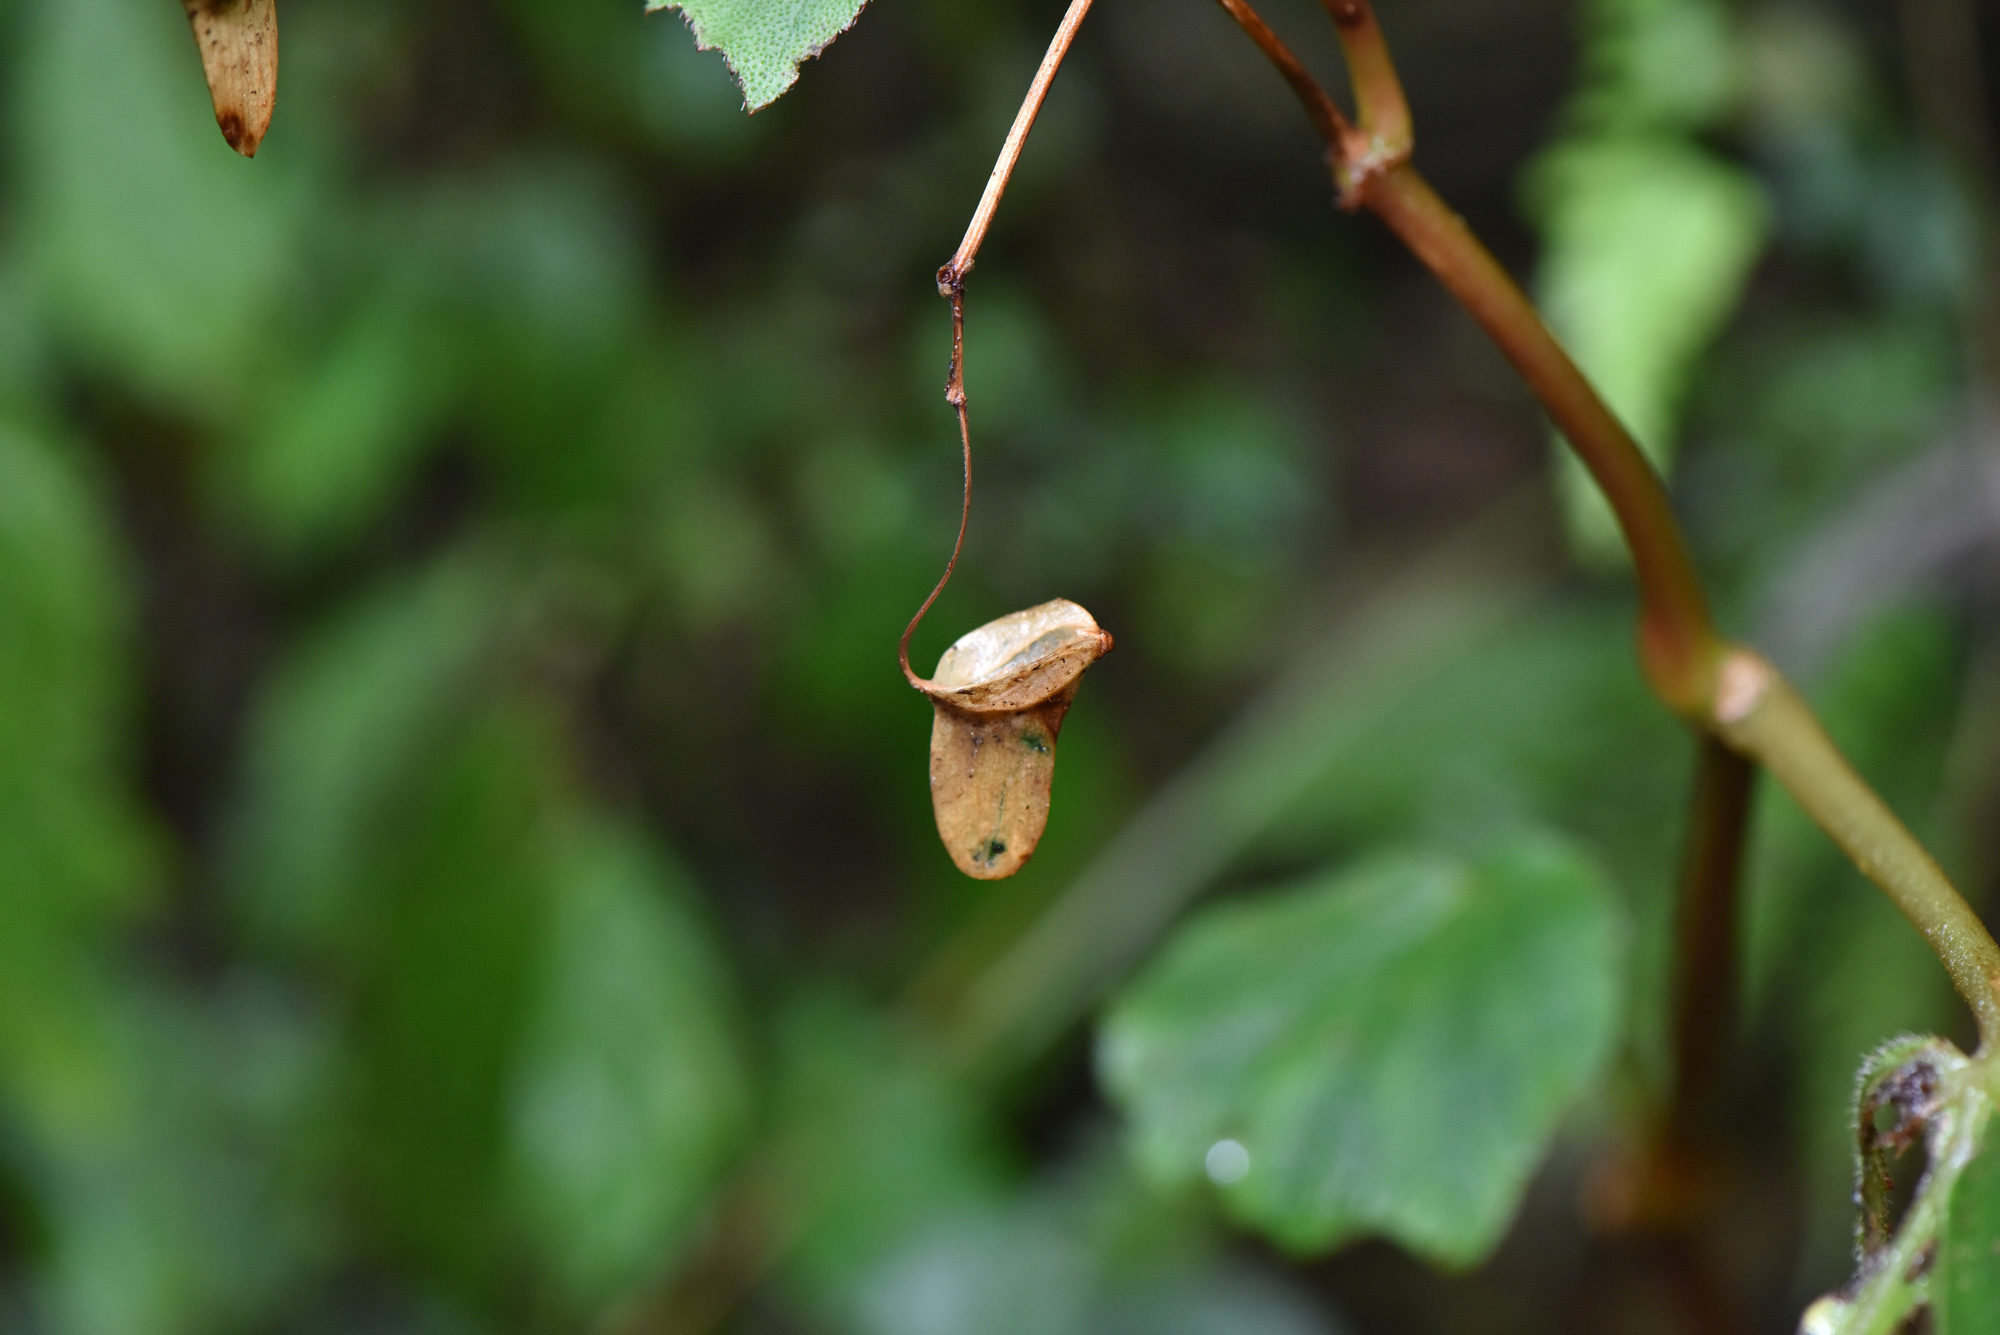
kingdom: Plantae
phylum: Tracheophyta
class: Magnoliopsida
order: Cucurbitales
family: Begoniaceae
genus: Begonia
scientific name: Begonia palmata
